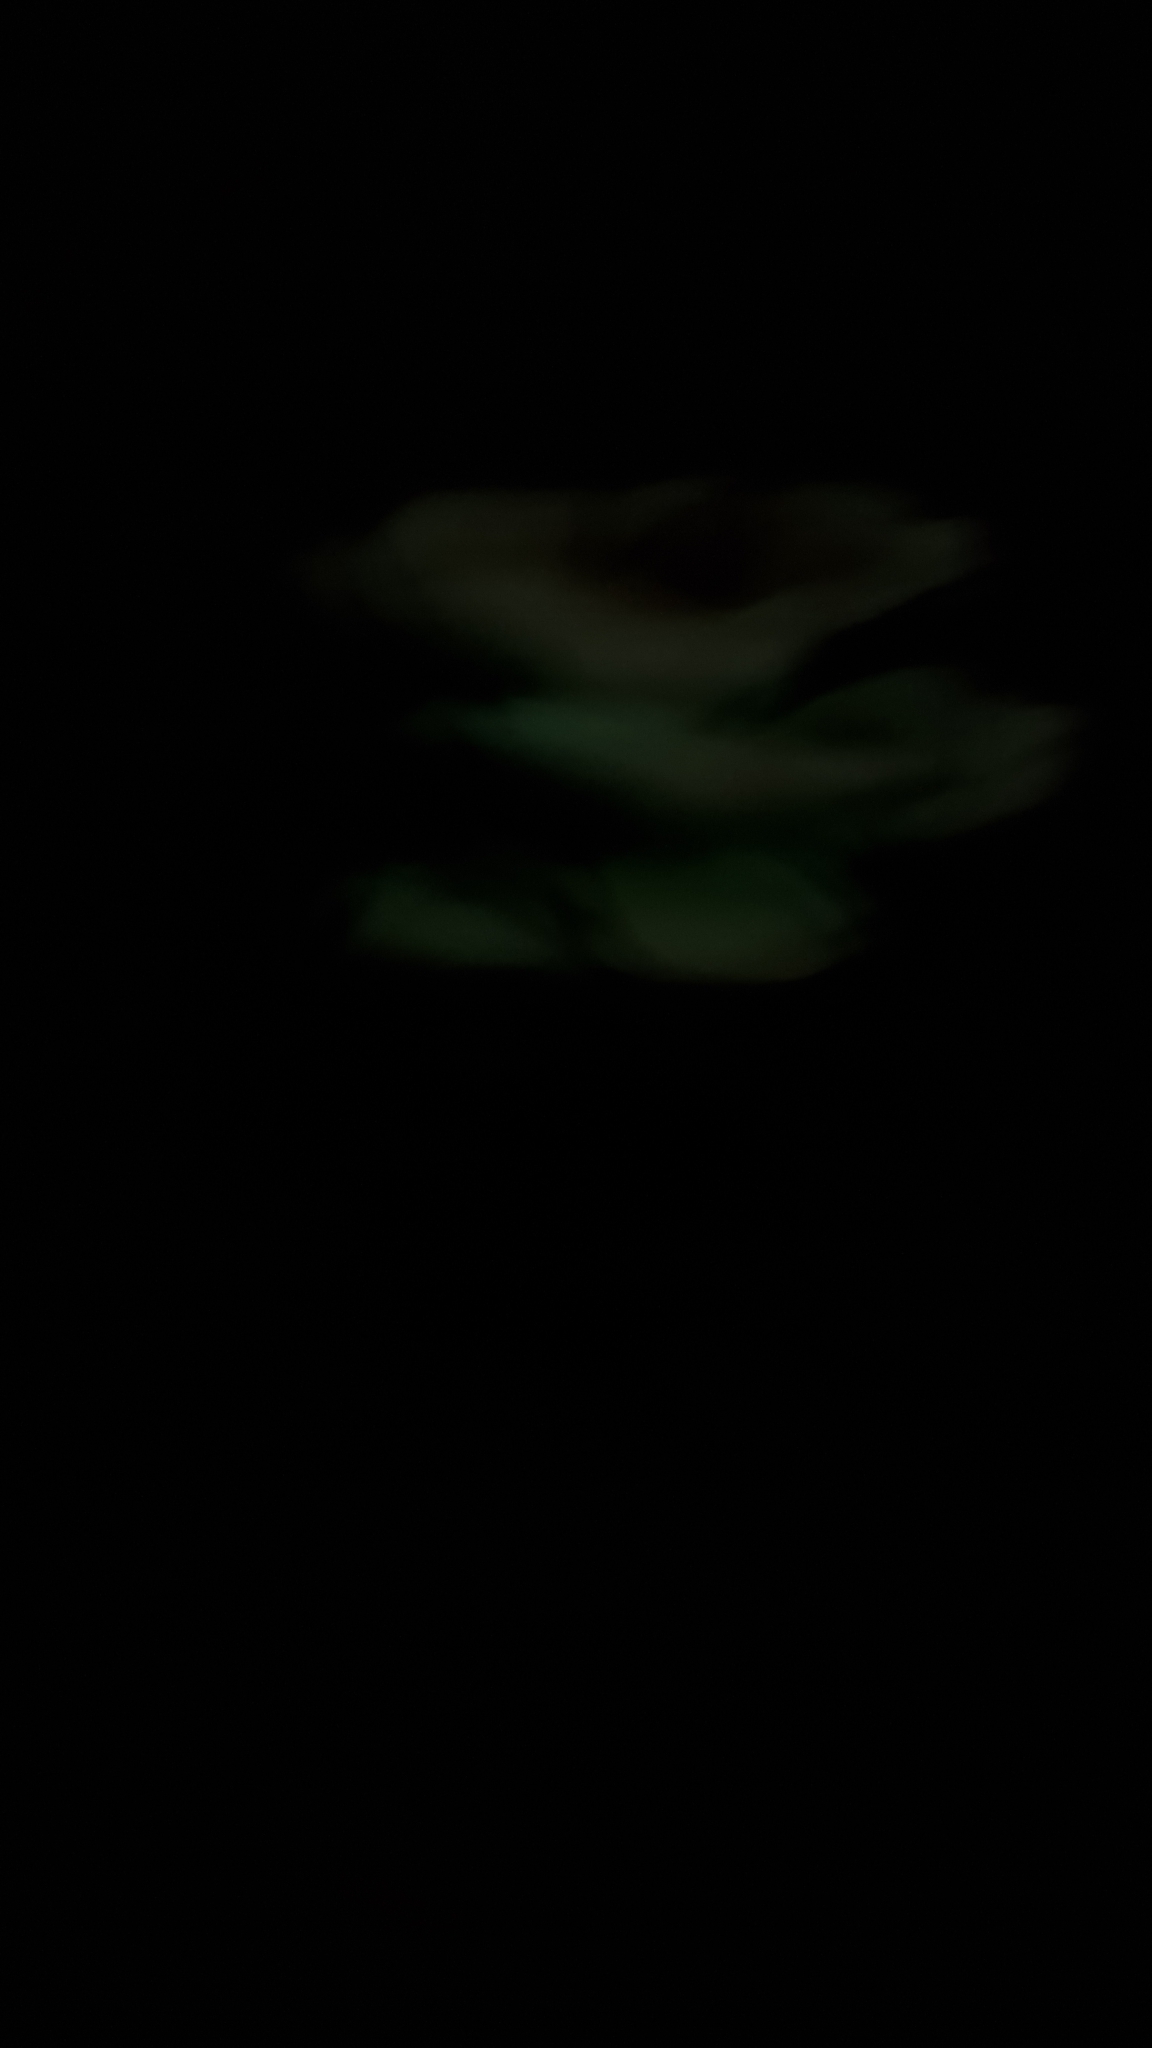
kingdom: Fungi
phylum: Basidiomycota
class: Agaricomycetes
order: Agaricales
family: Omphalotaceae
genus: Omphalotus
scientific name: Omphalotus nidiformis
